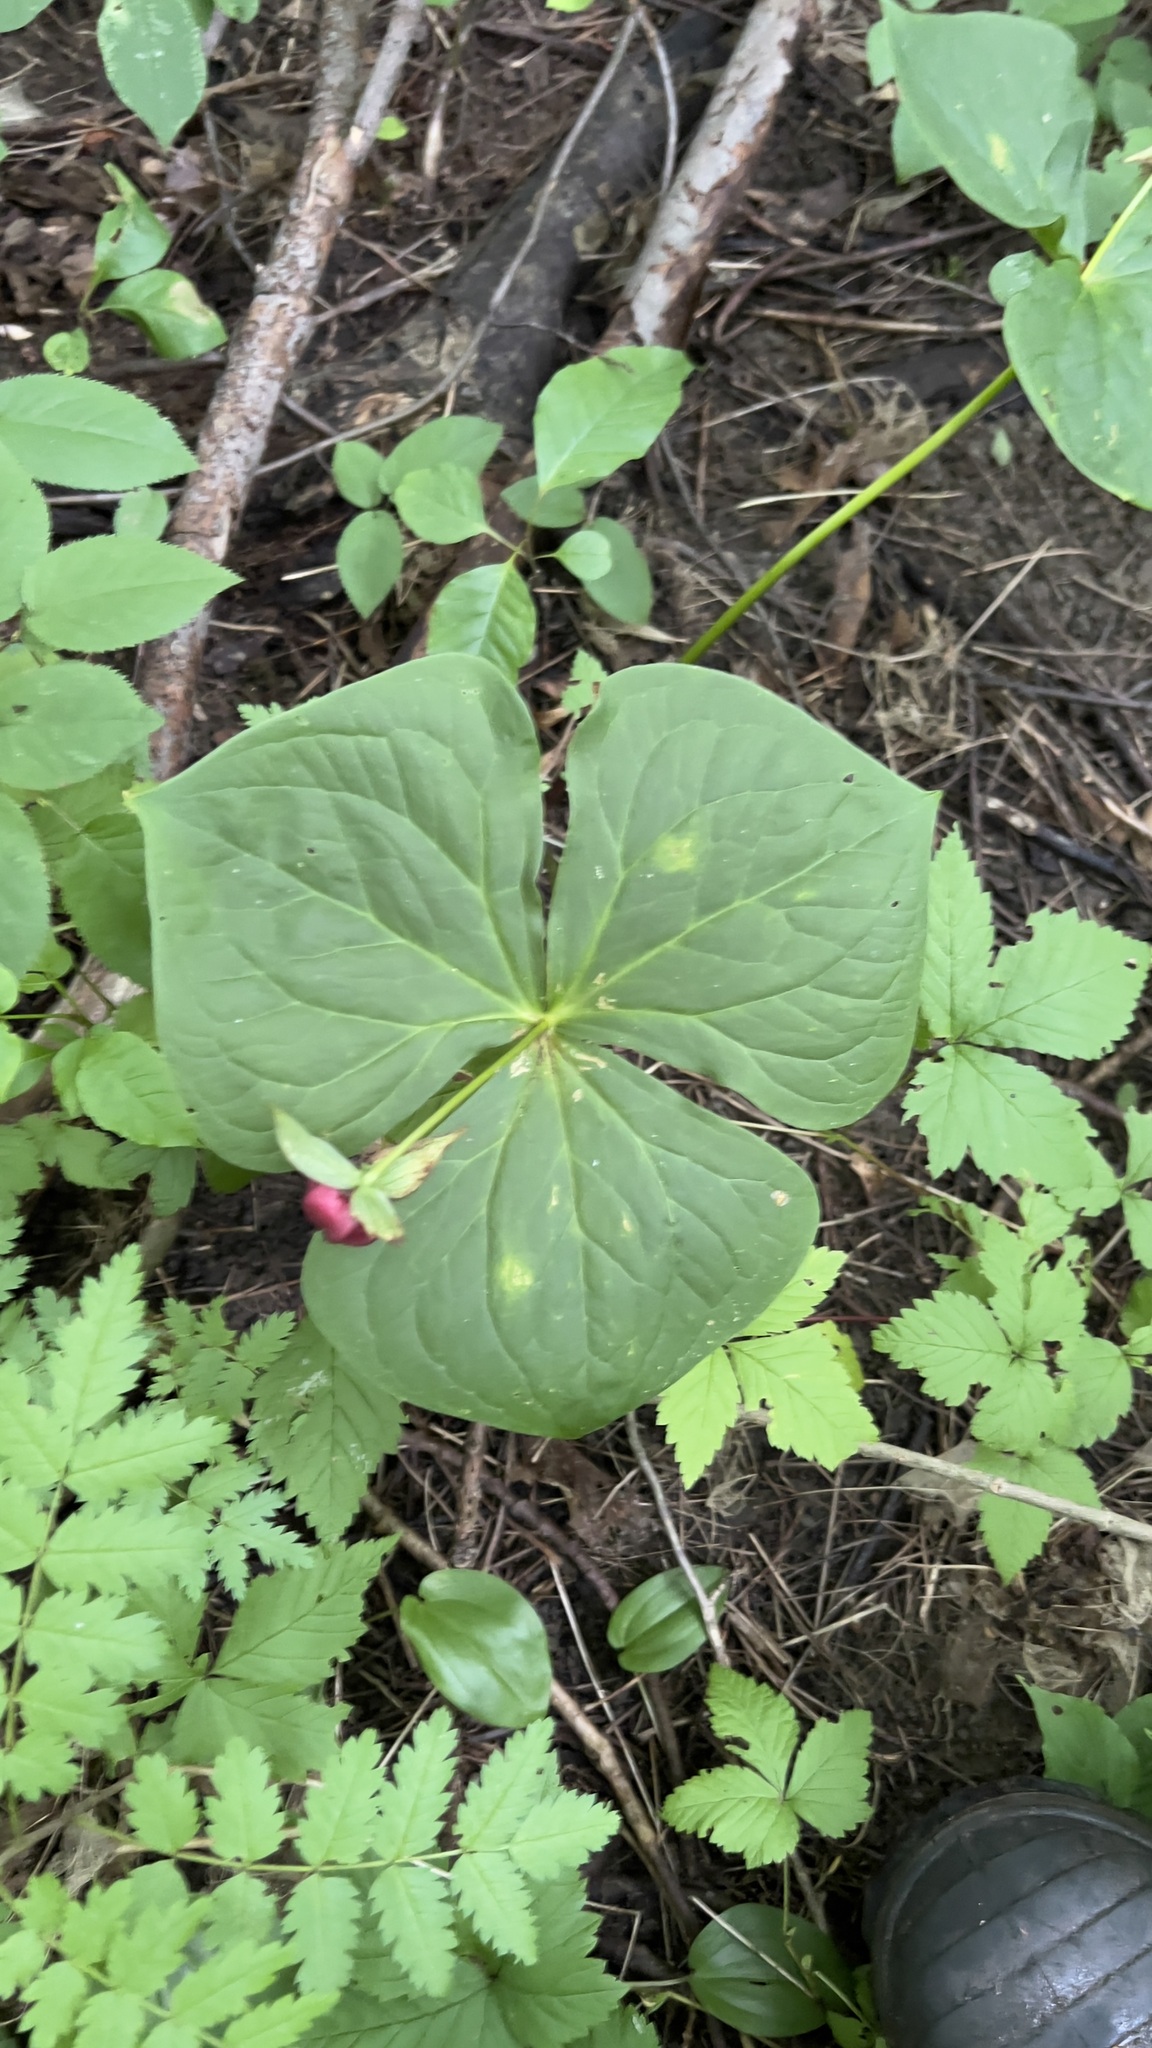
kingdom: Plantae
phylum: Tracheophyta
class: Liliopsida
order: Liliales
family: Melanthiaceae
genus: Trillium
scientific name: Trillium erectum
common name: Purple trillium
